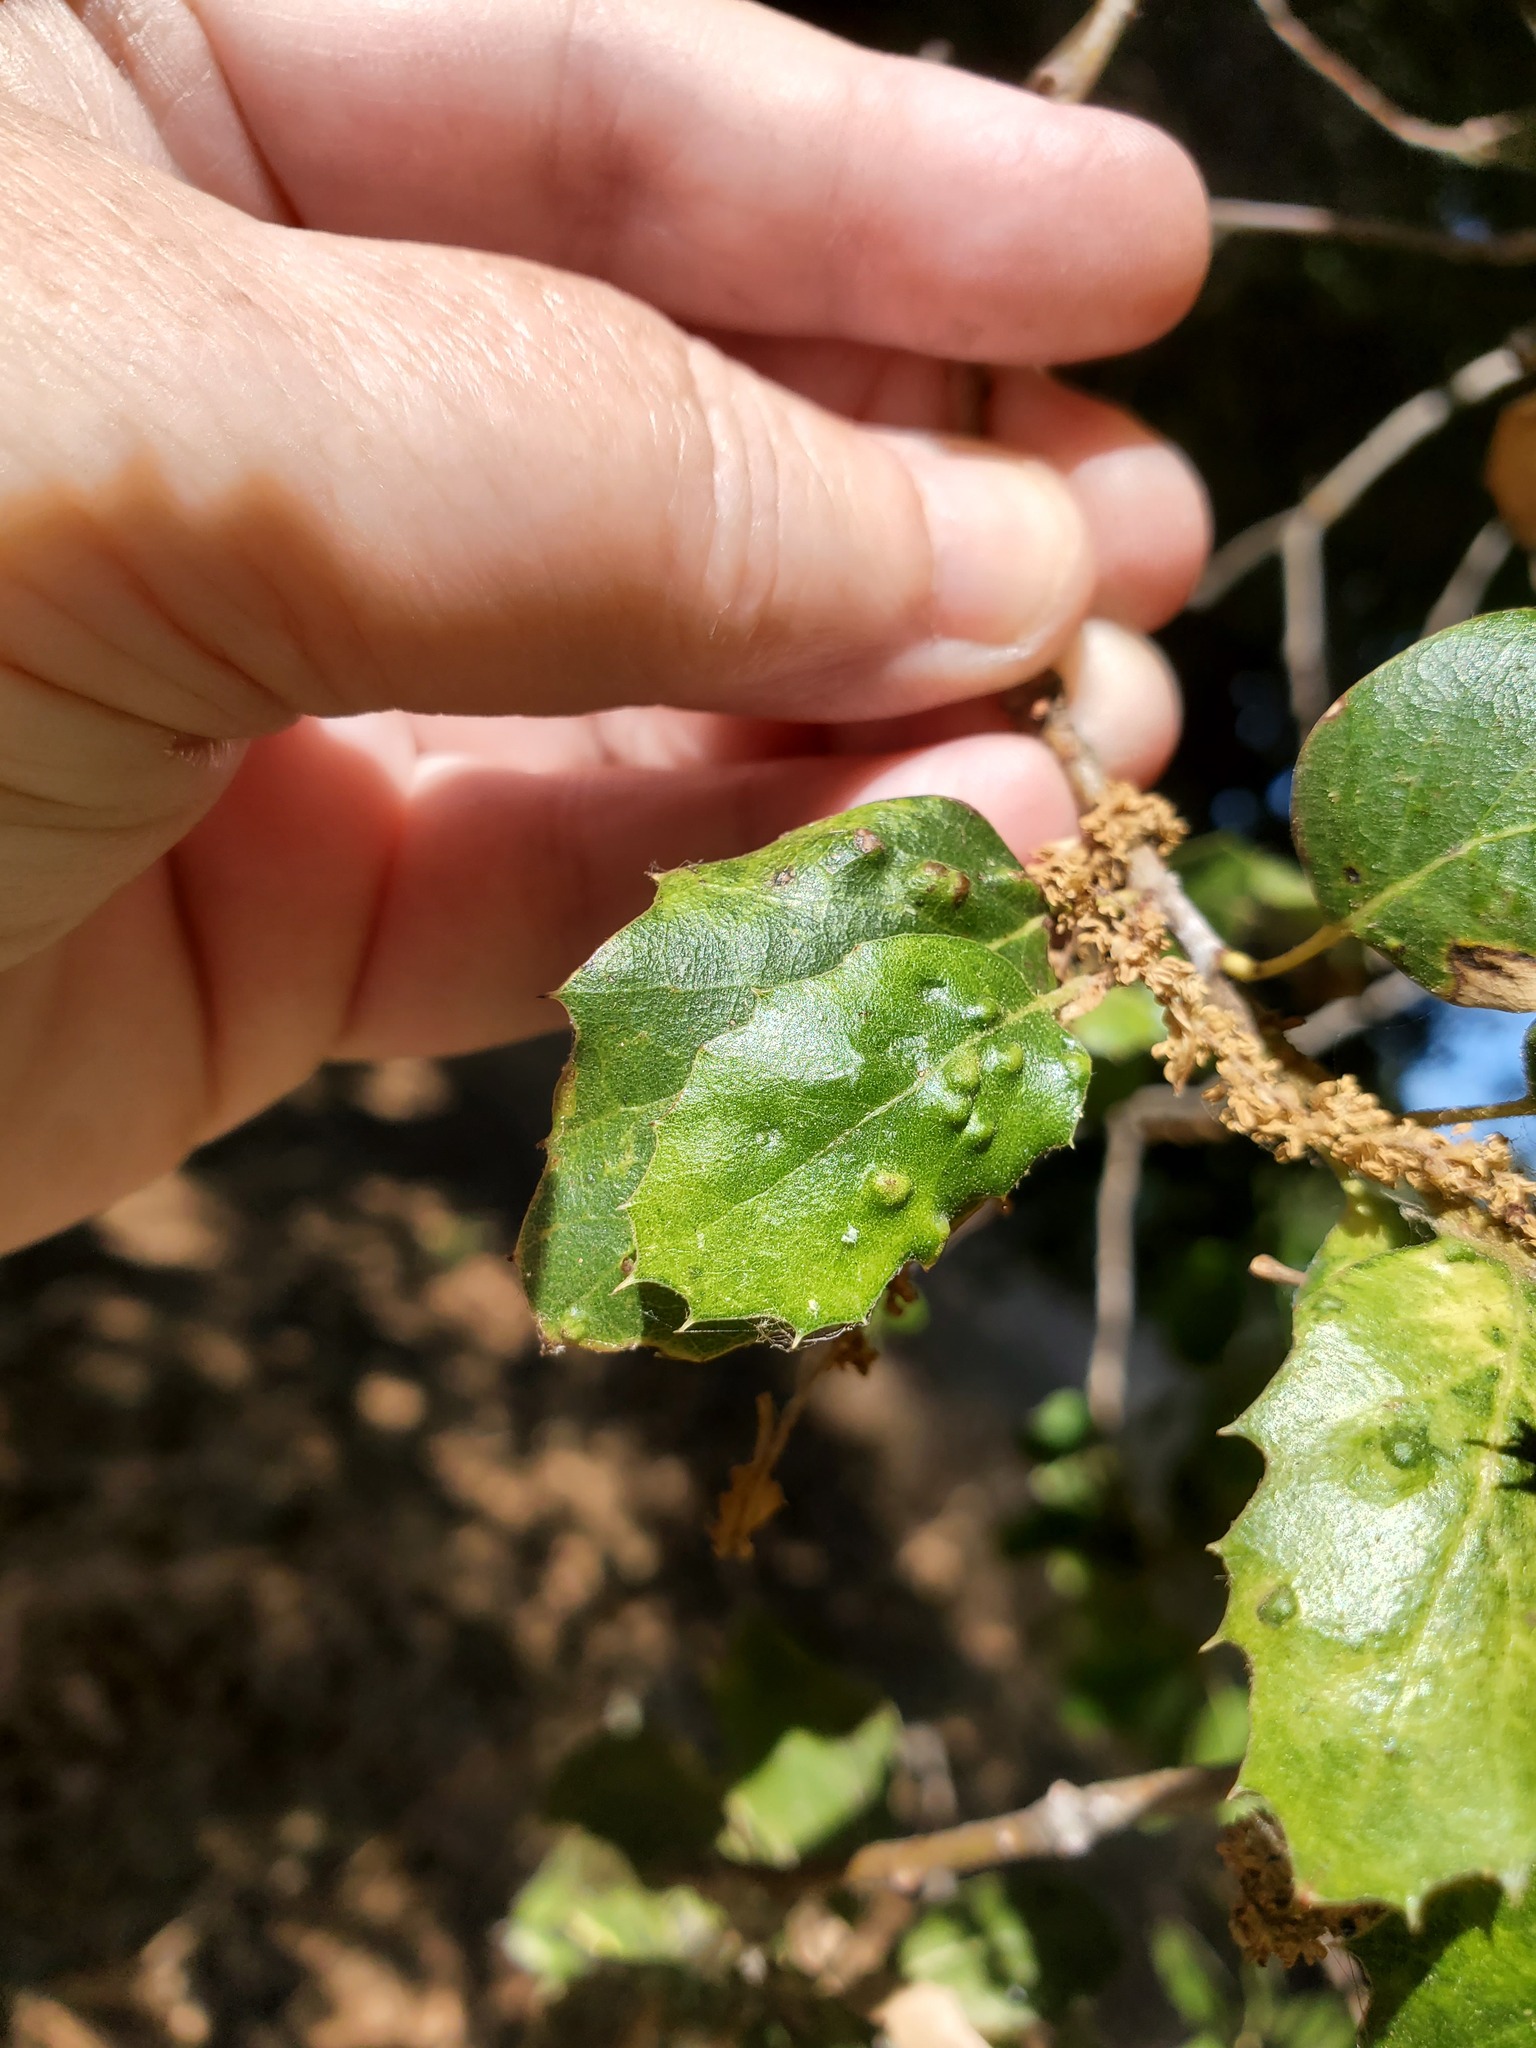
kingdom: Animalia
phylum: Arthropoda
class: Arachnida
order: Trombidiformes
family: Eriophyidae
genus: Aceria
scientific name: Aceria
